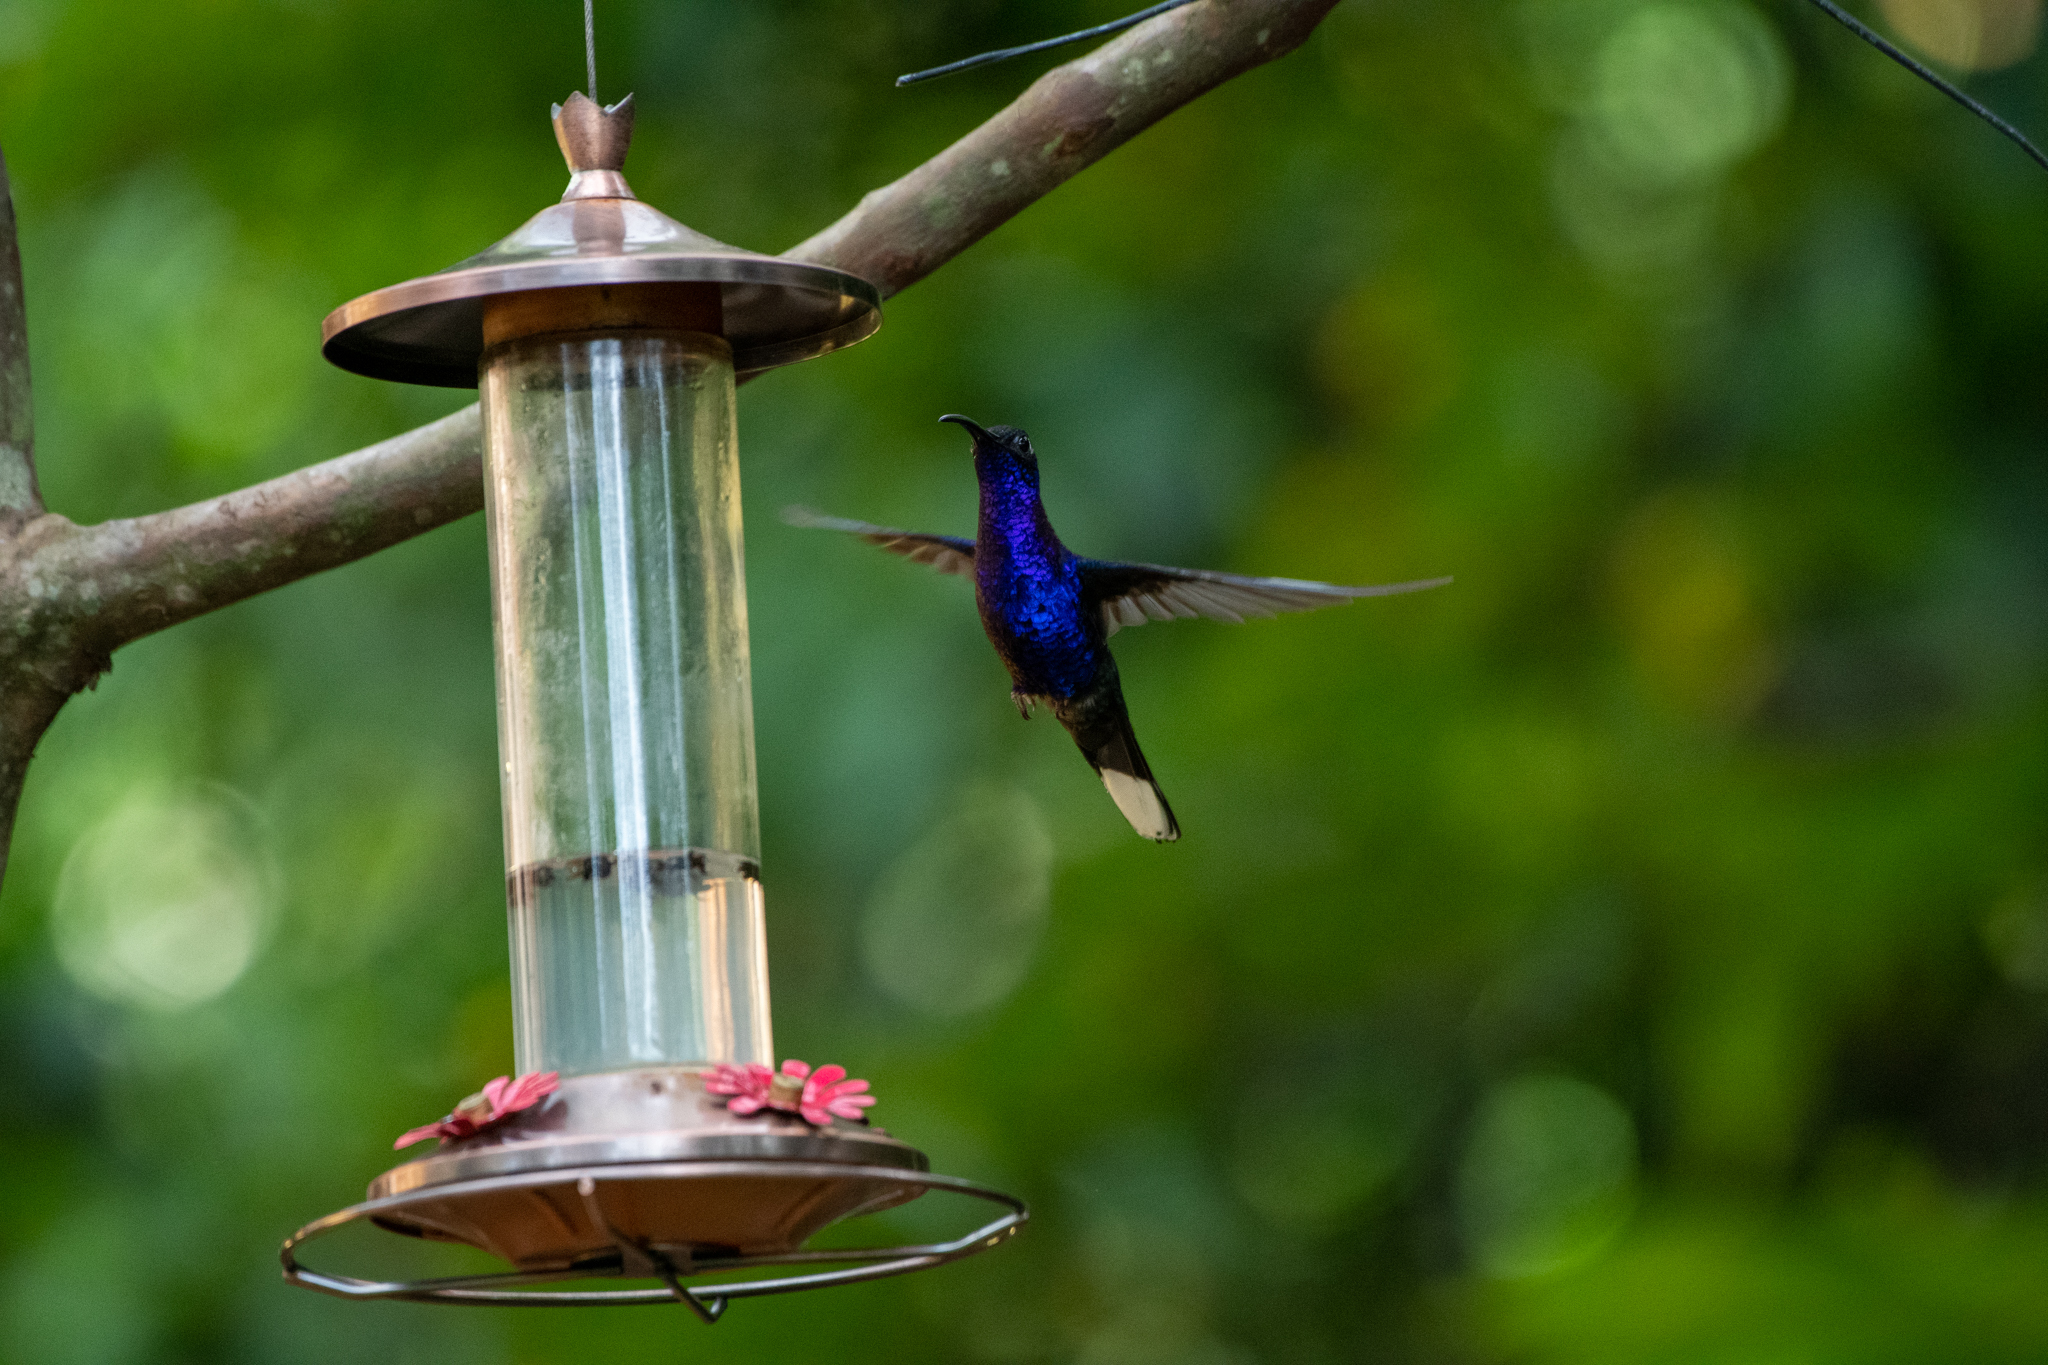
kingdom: Animalia
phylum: Chordata
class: Aves
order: Apodiformes
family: Trochilidae
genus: Campylopterus
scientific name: Campylopterus hemileucurus
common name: Violet sabrewing
